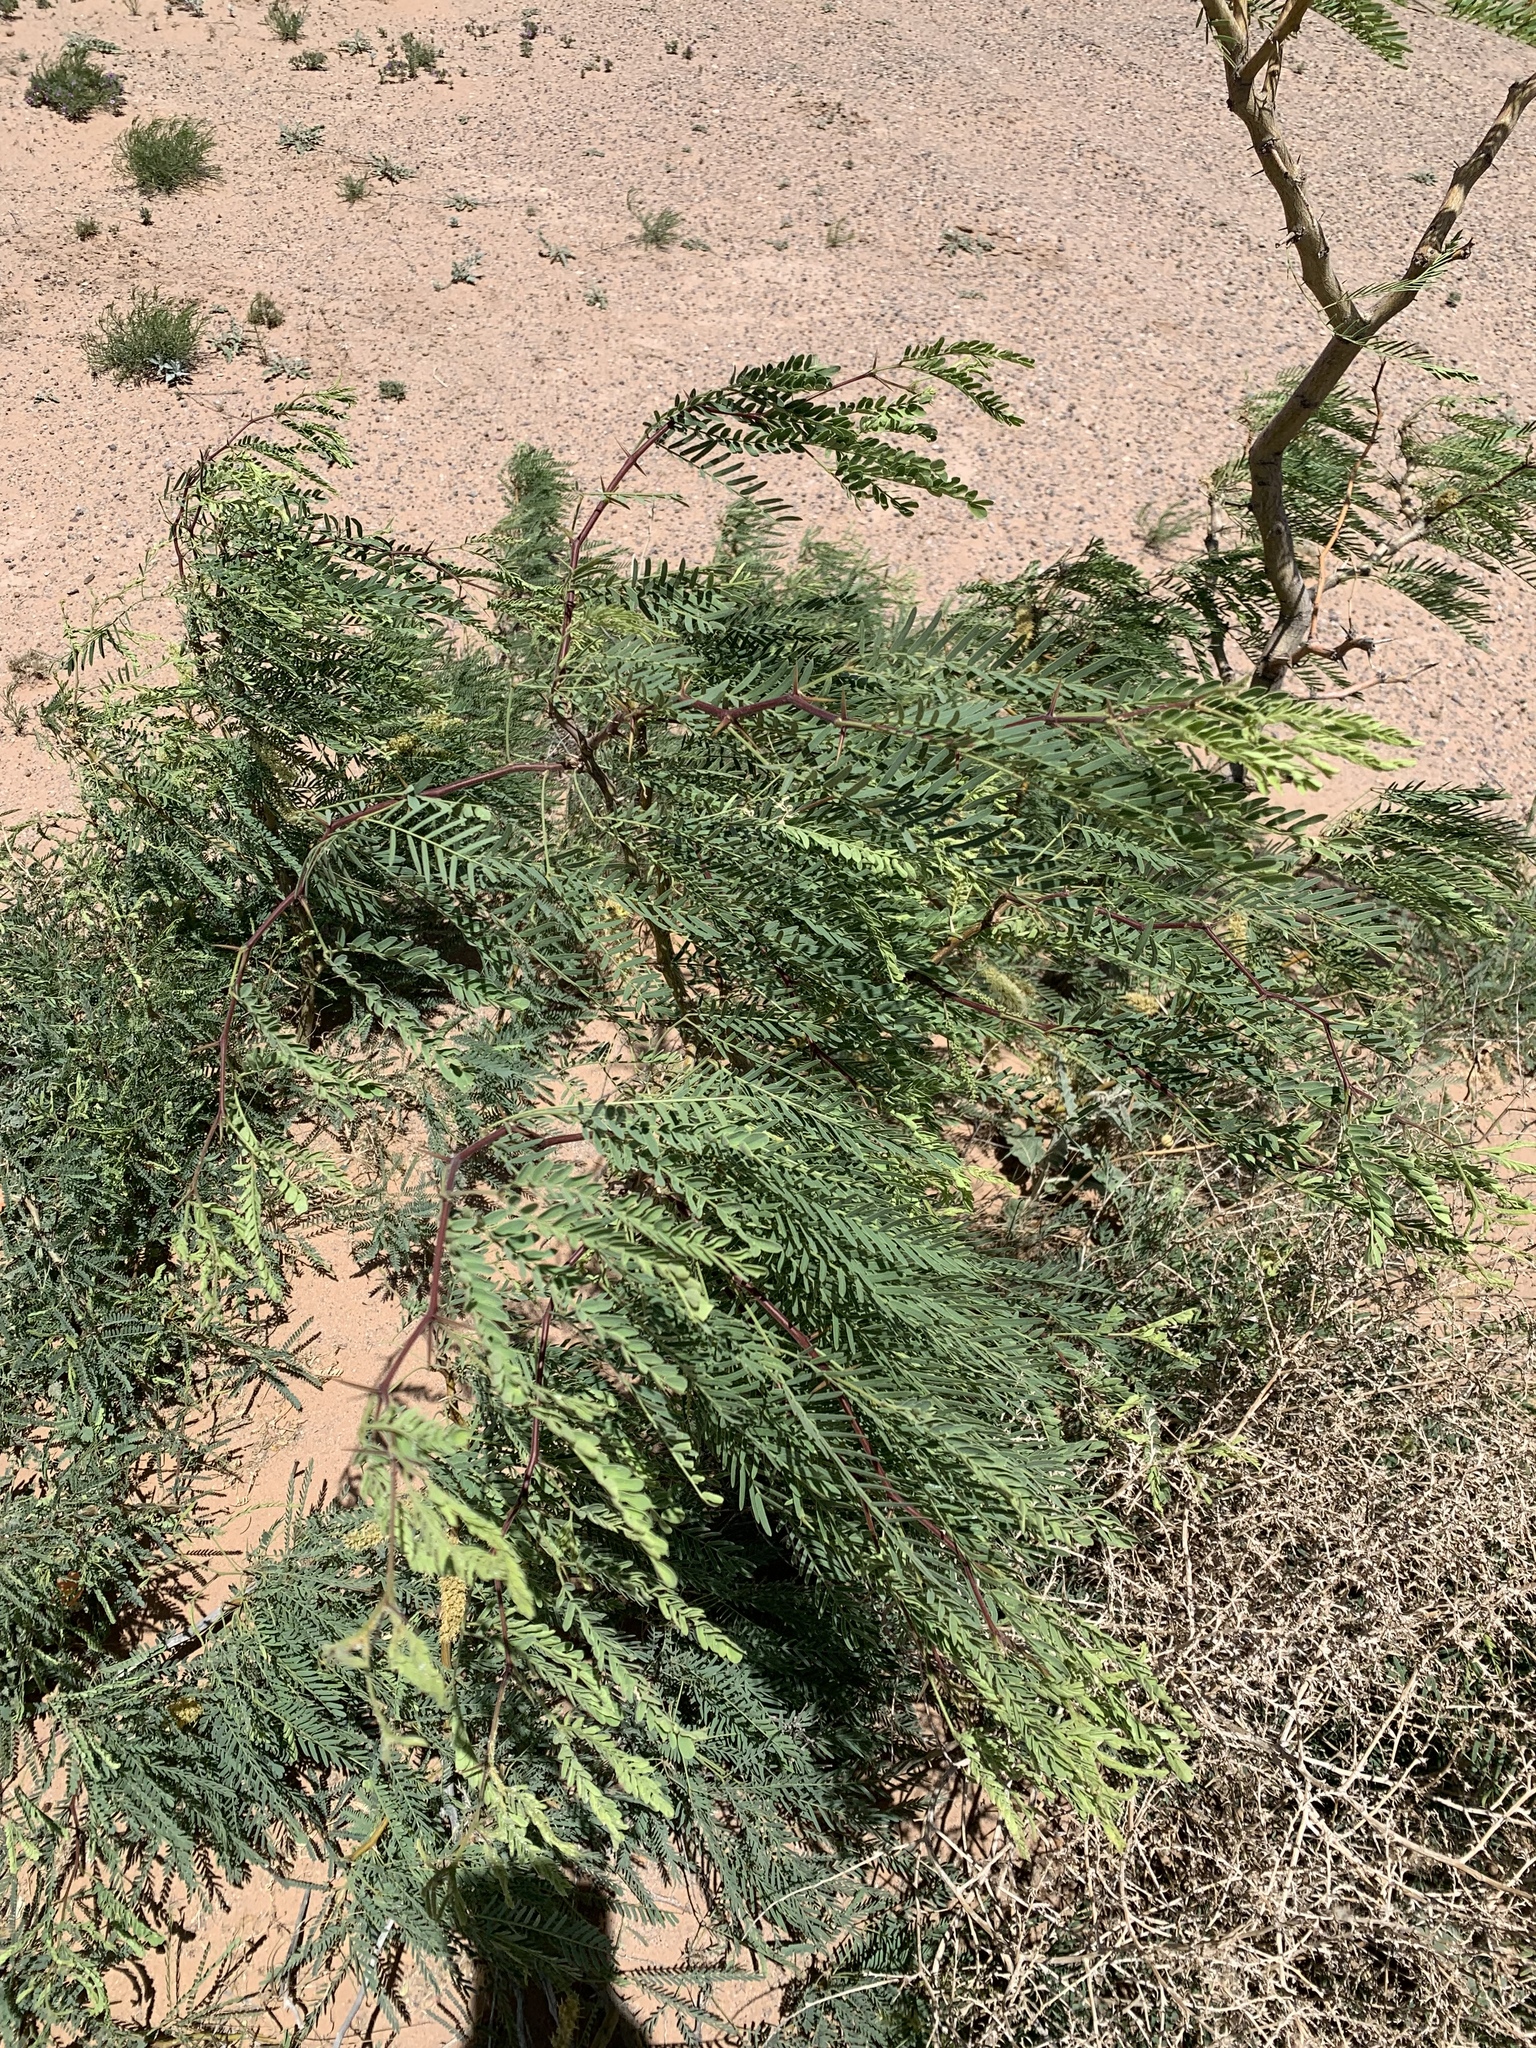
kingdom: Plantae
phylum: Tracheophyta
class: Magnoliopsida
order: Fabales
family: Fabaceae
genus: Prosopis
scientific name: Prosopis glandulosa
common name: Honey mesquite
